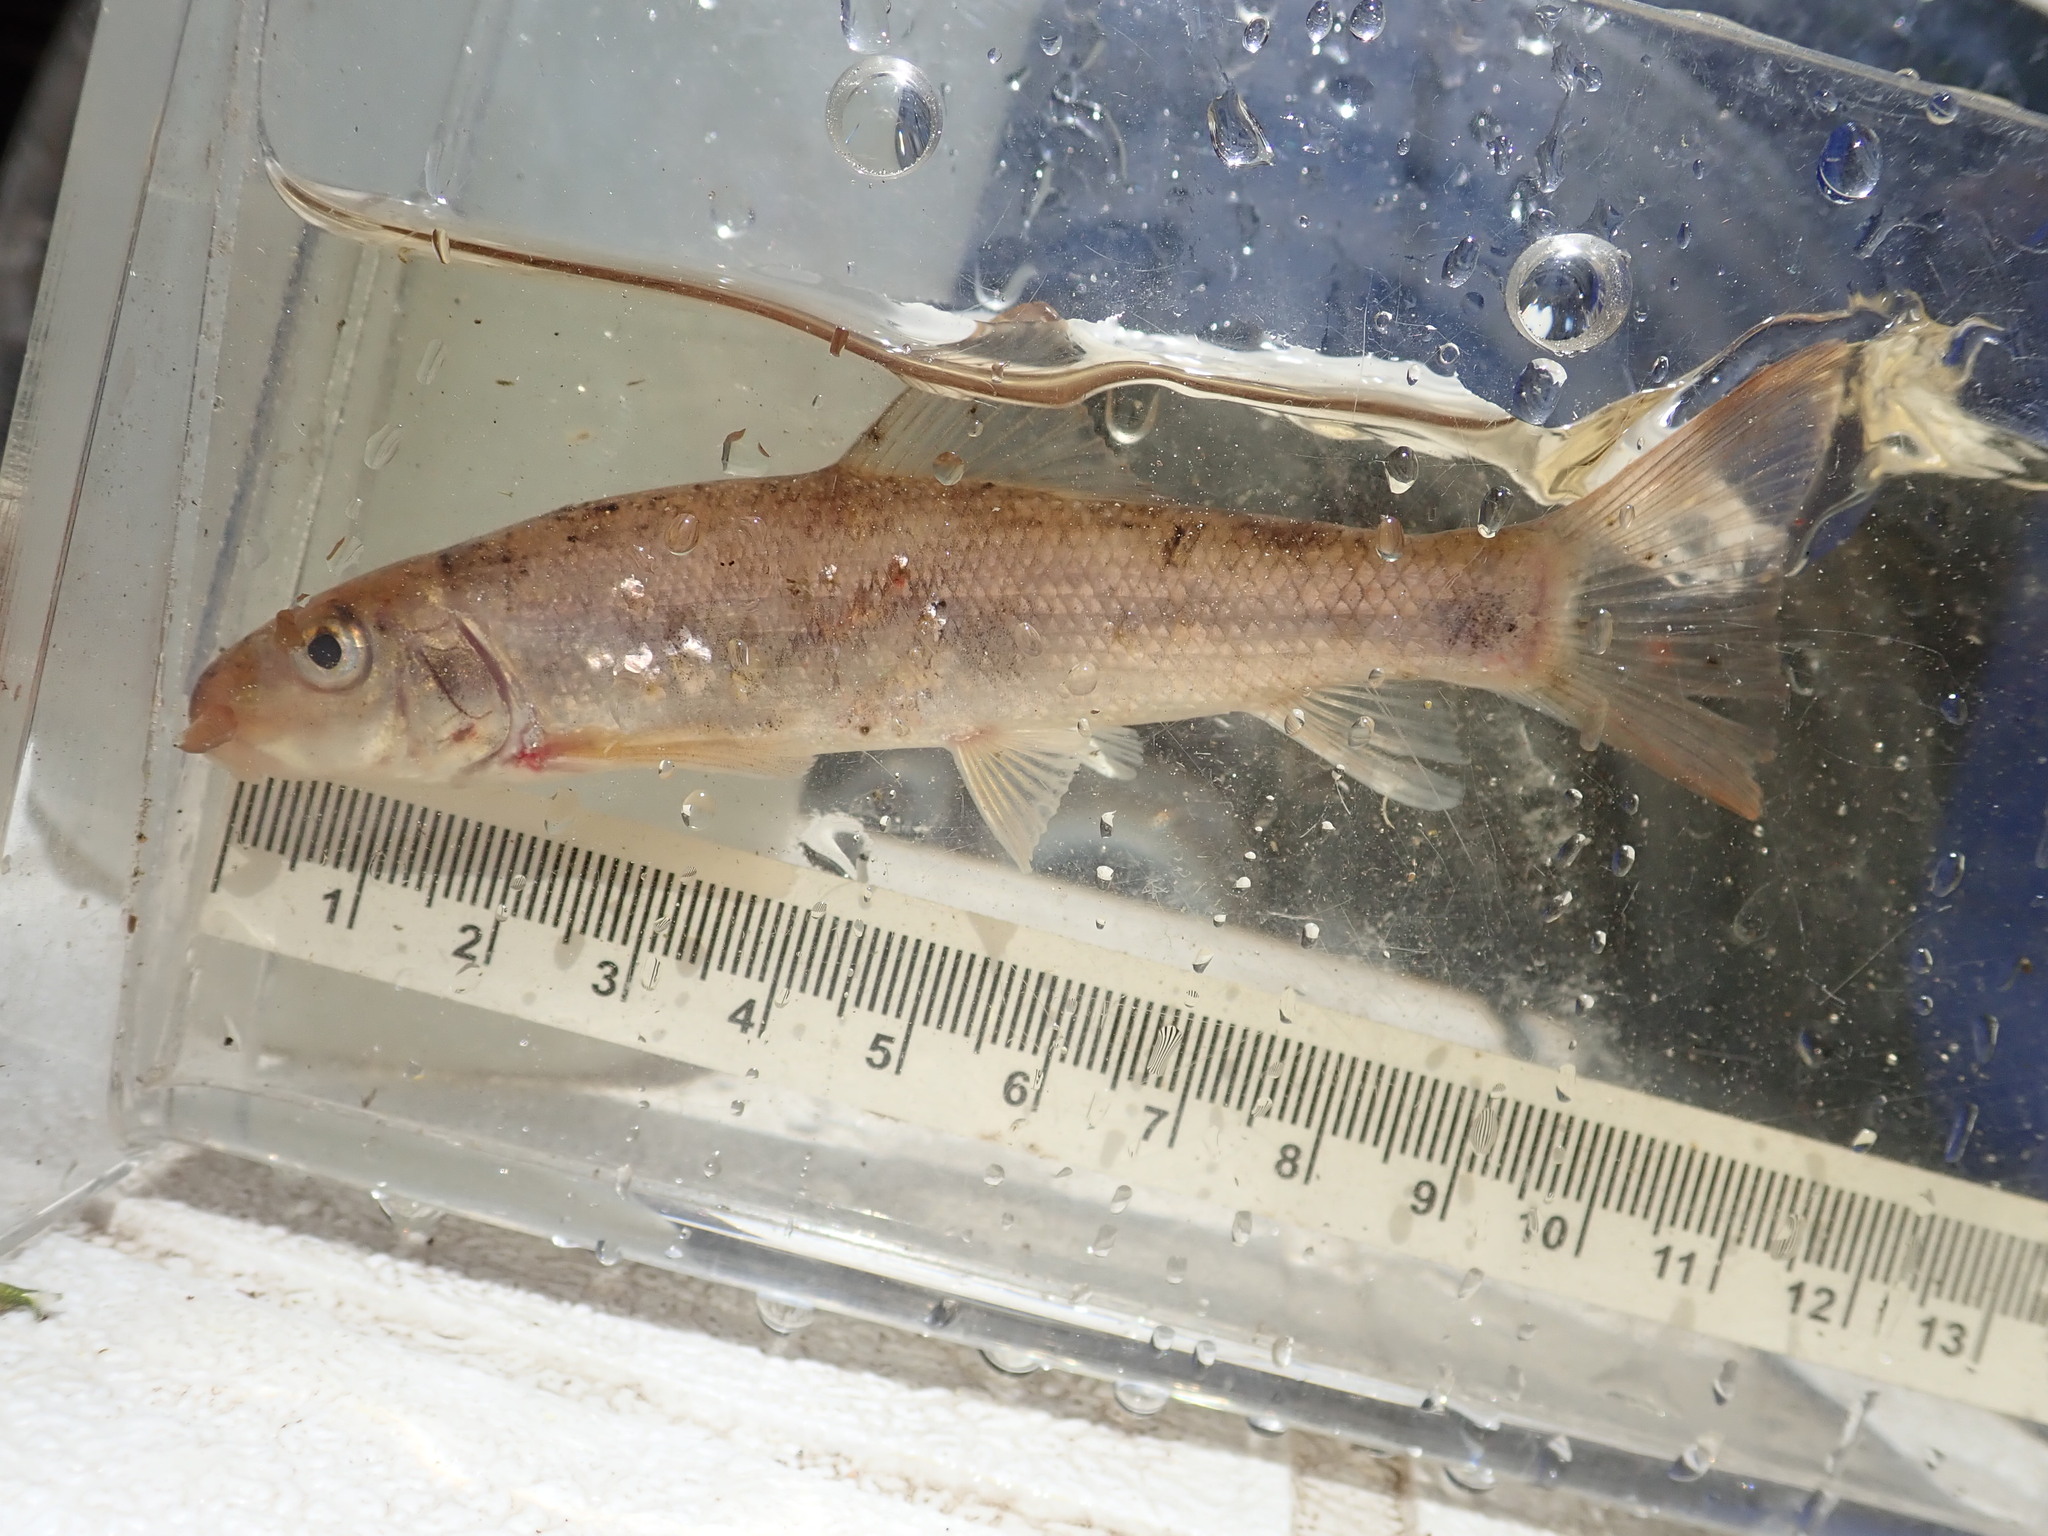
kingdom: Animalia
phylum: Chordata
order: Cypriniformes
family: Catostomidae
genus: Catostomus
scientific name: Catostomus commersonii
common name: White sucker
